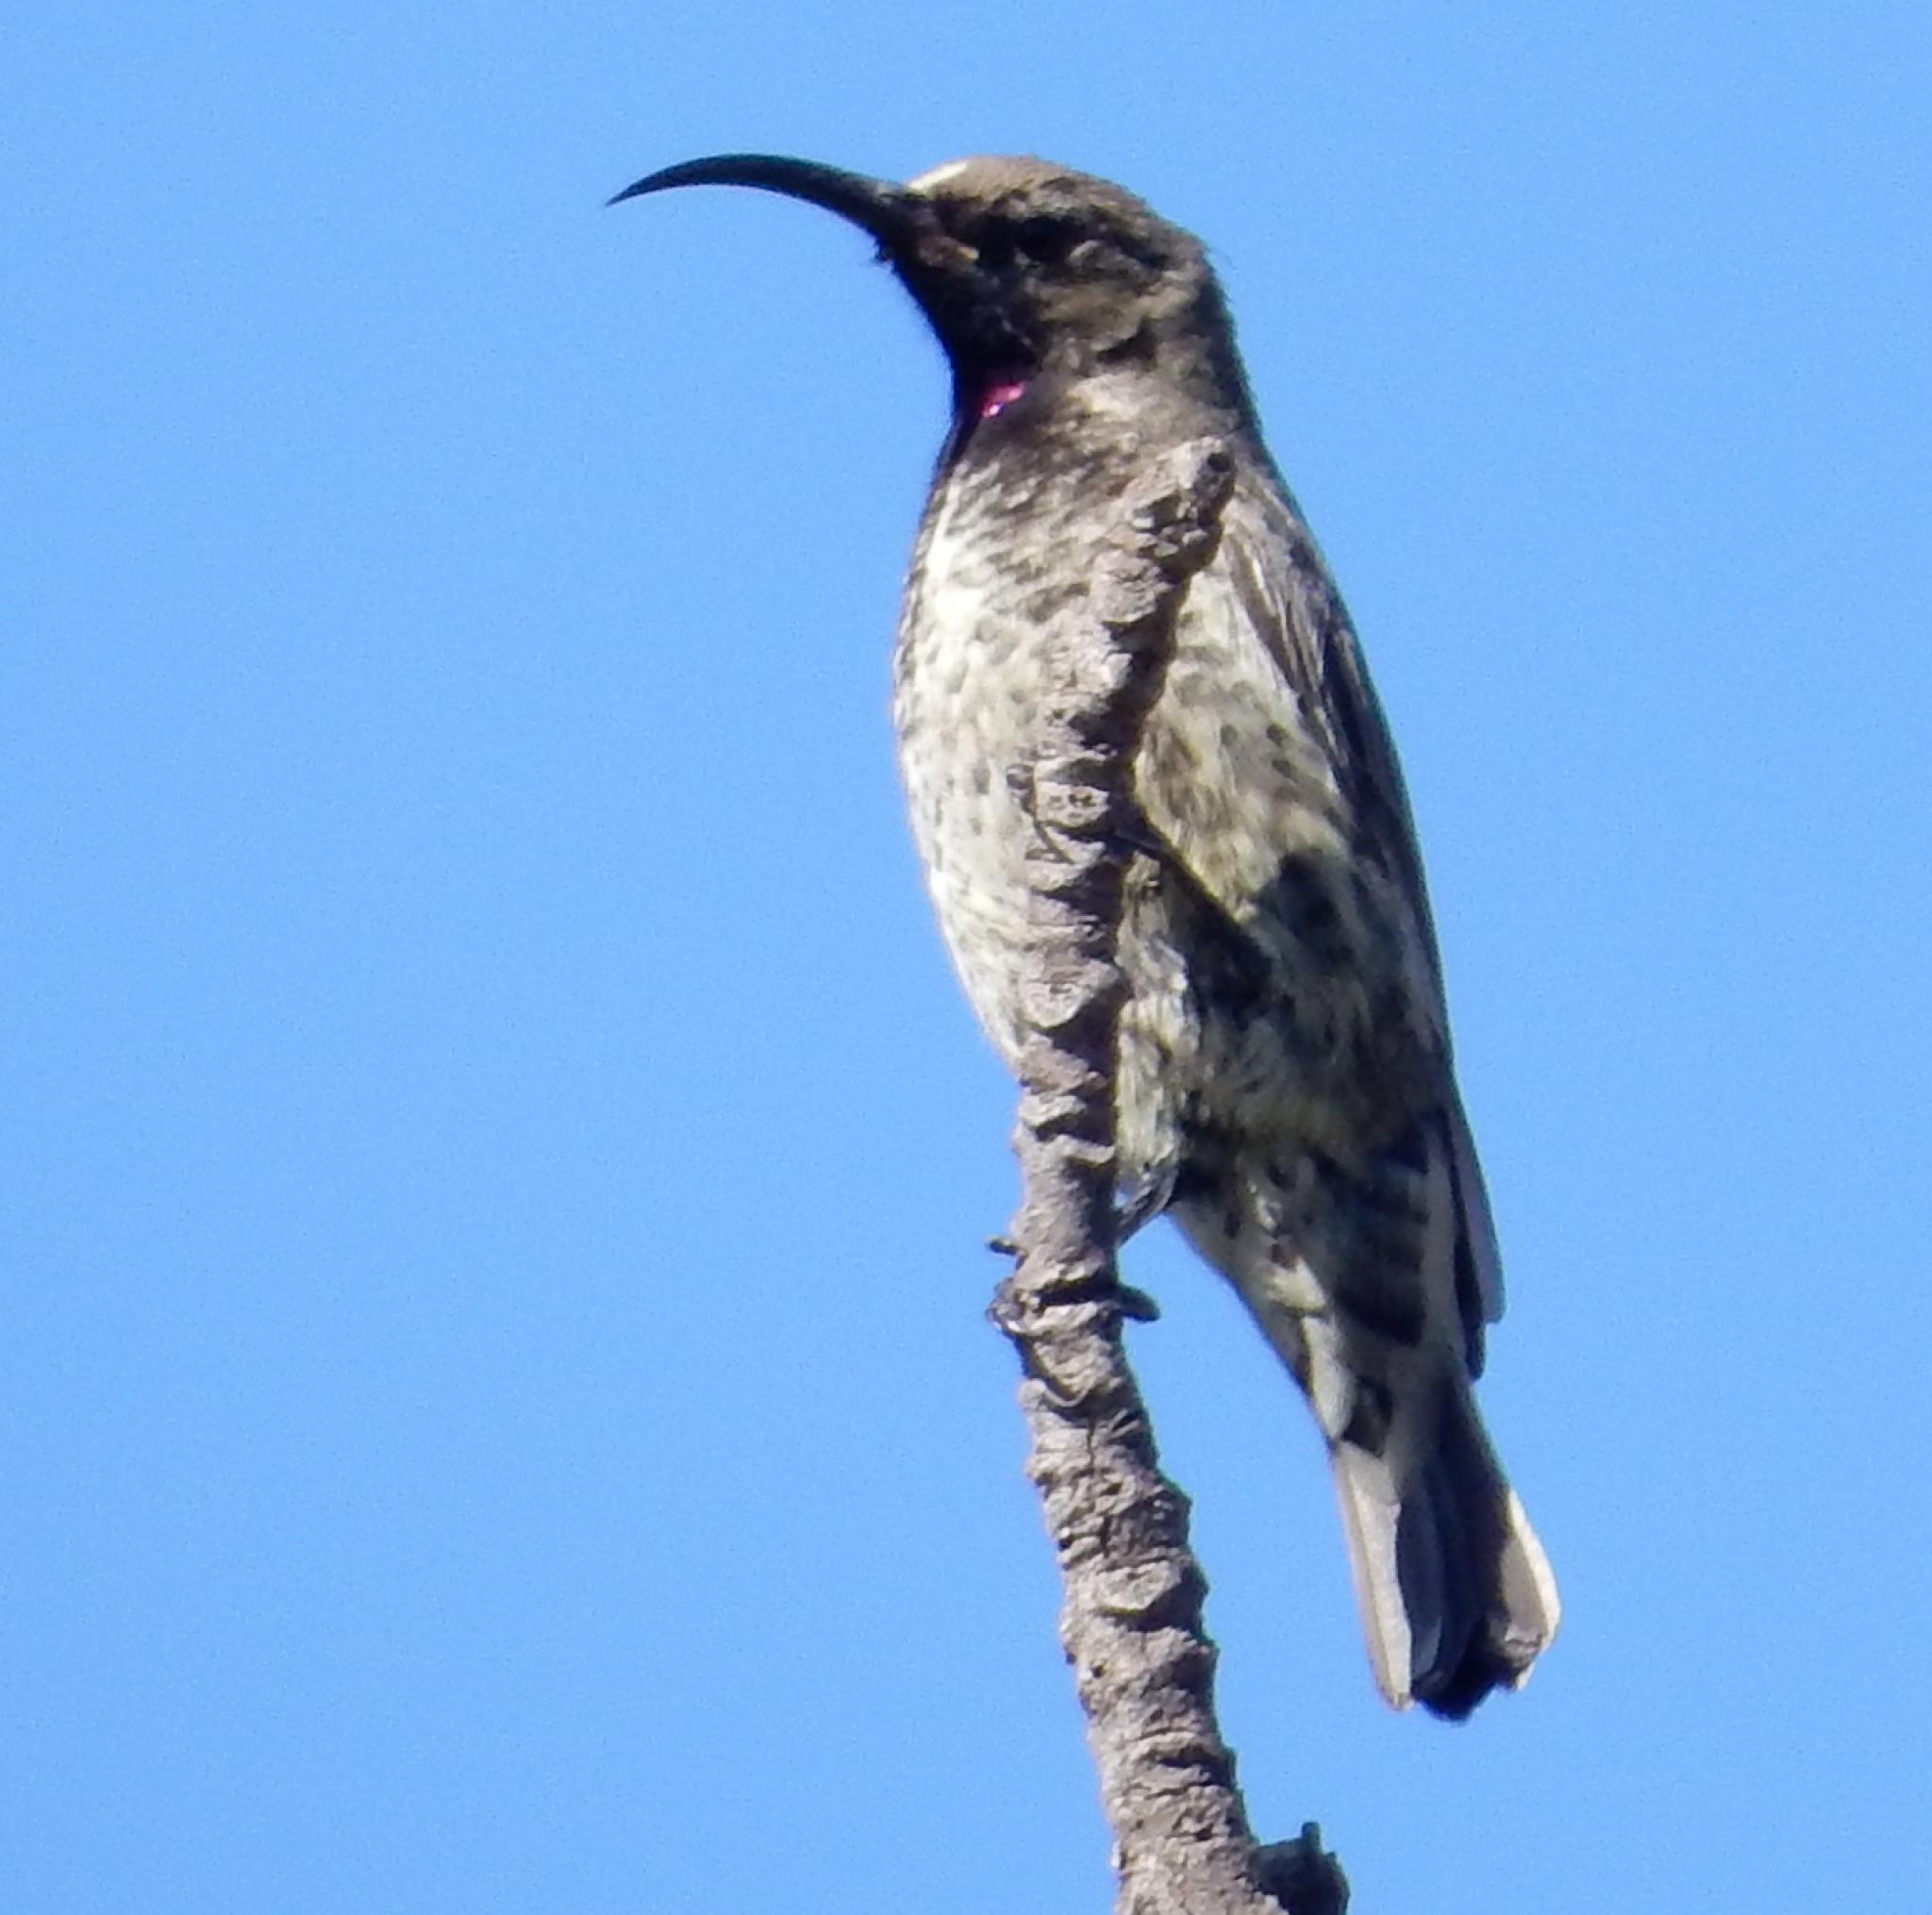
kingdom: Animalia
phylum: Chordata
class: Aves
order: Passeriformes
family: Nectariniidae
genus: Chalcomitra
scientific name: Chalcomitra amethystina
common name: Amethyst sunbird
